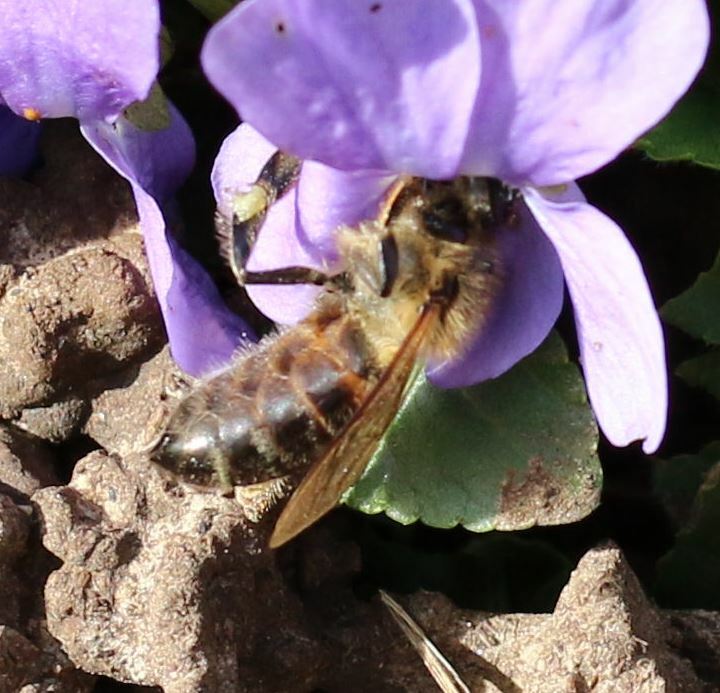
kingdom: Animalia
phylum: Arthropoda
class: Insecta
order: Hymenoptera
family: Apidae
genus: Apis
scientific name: Apis mellifera
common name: Honey bee
